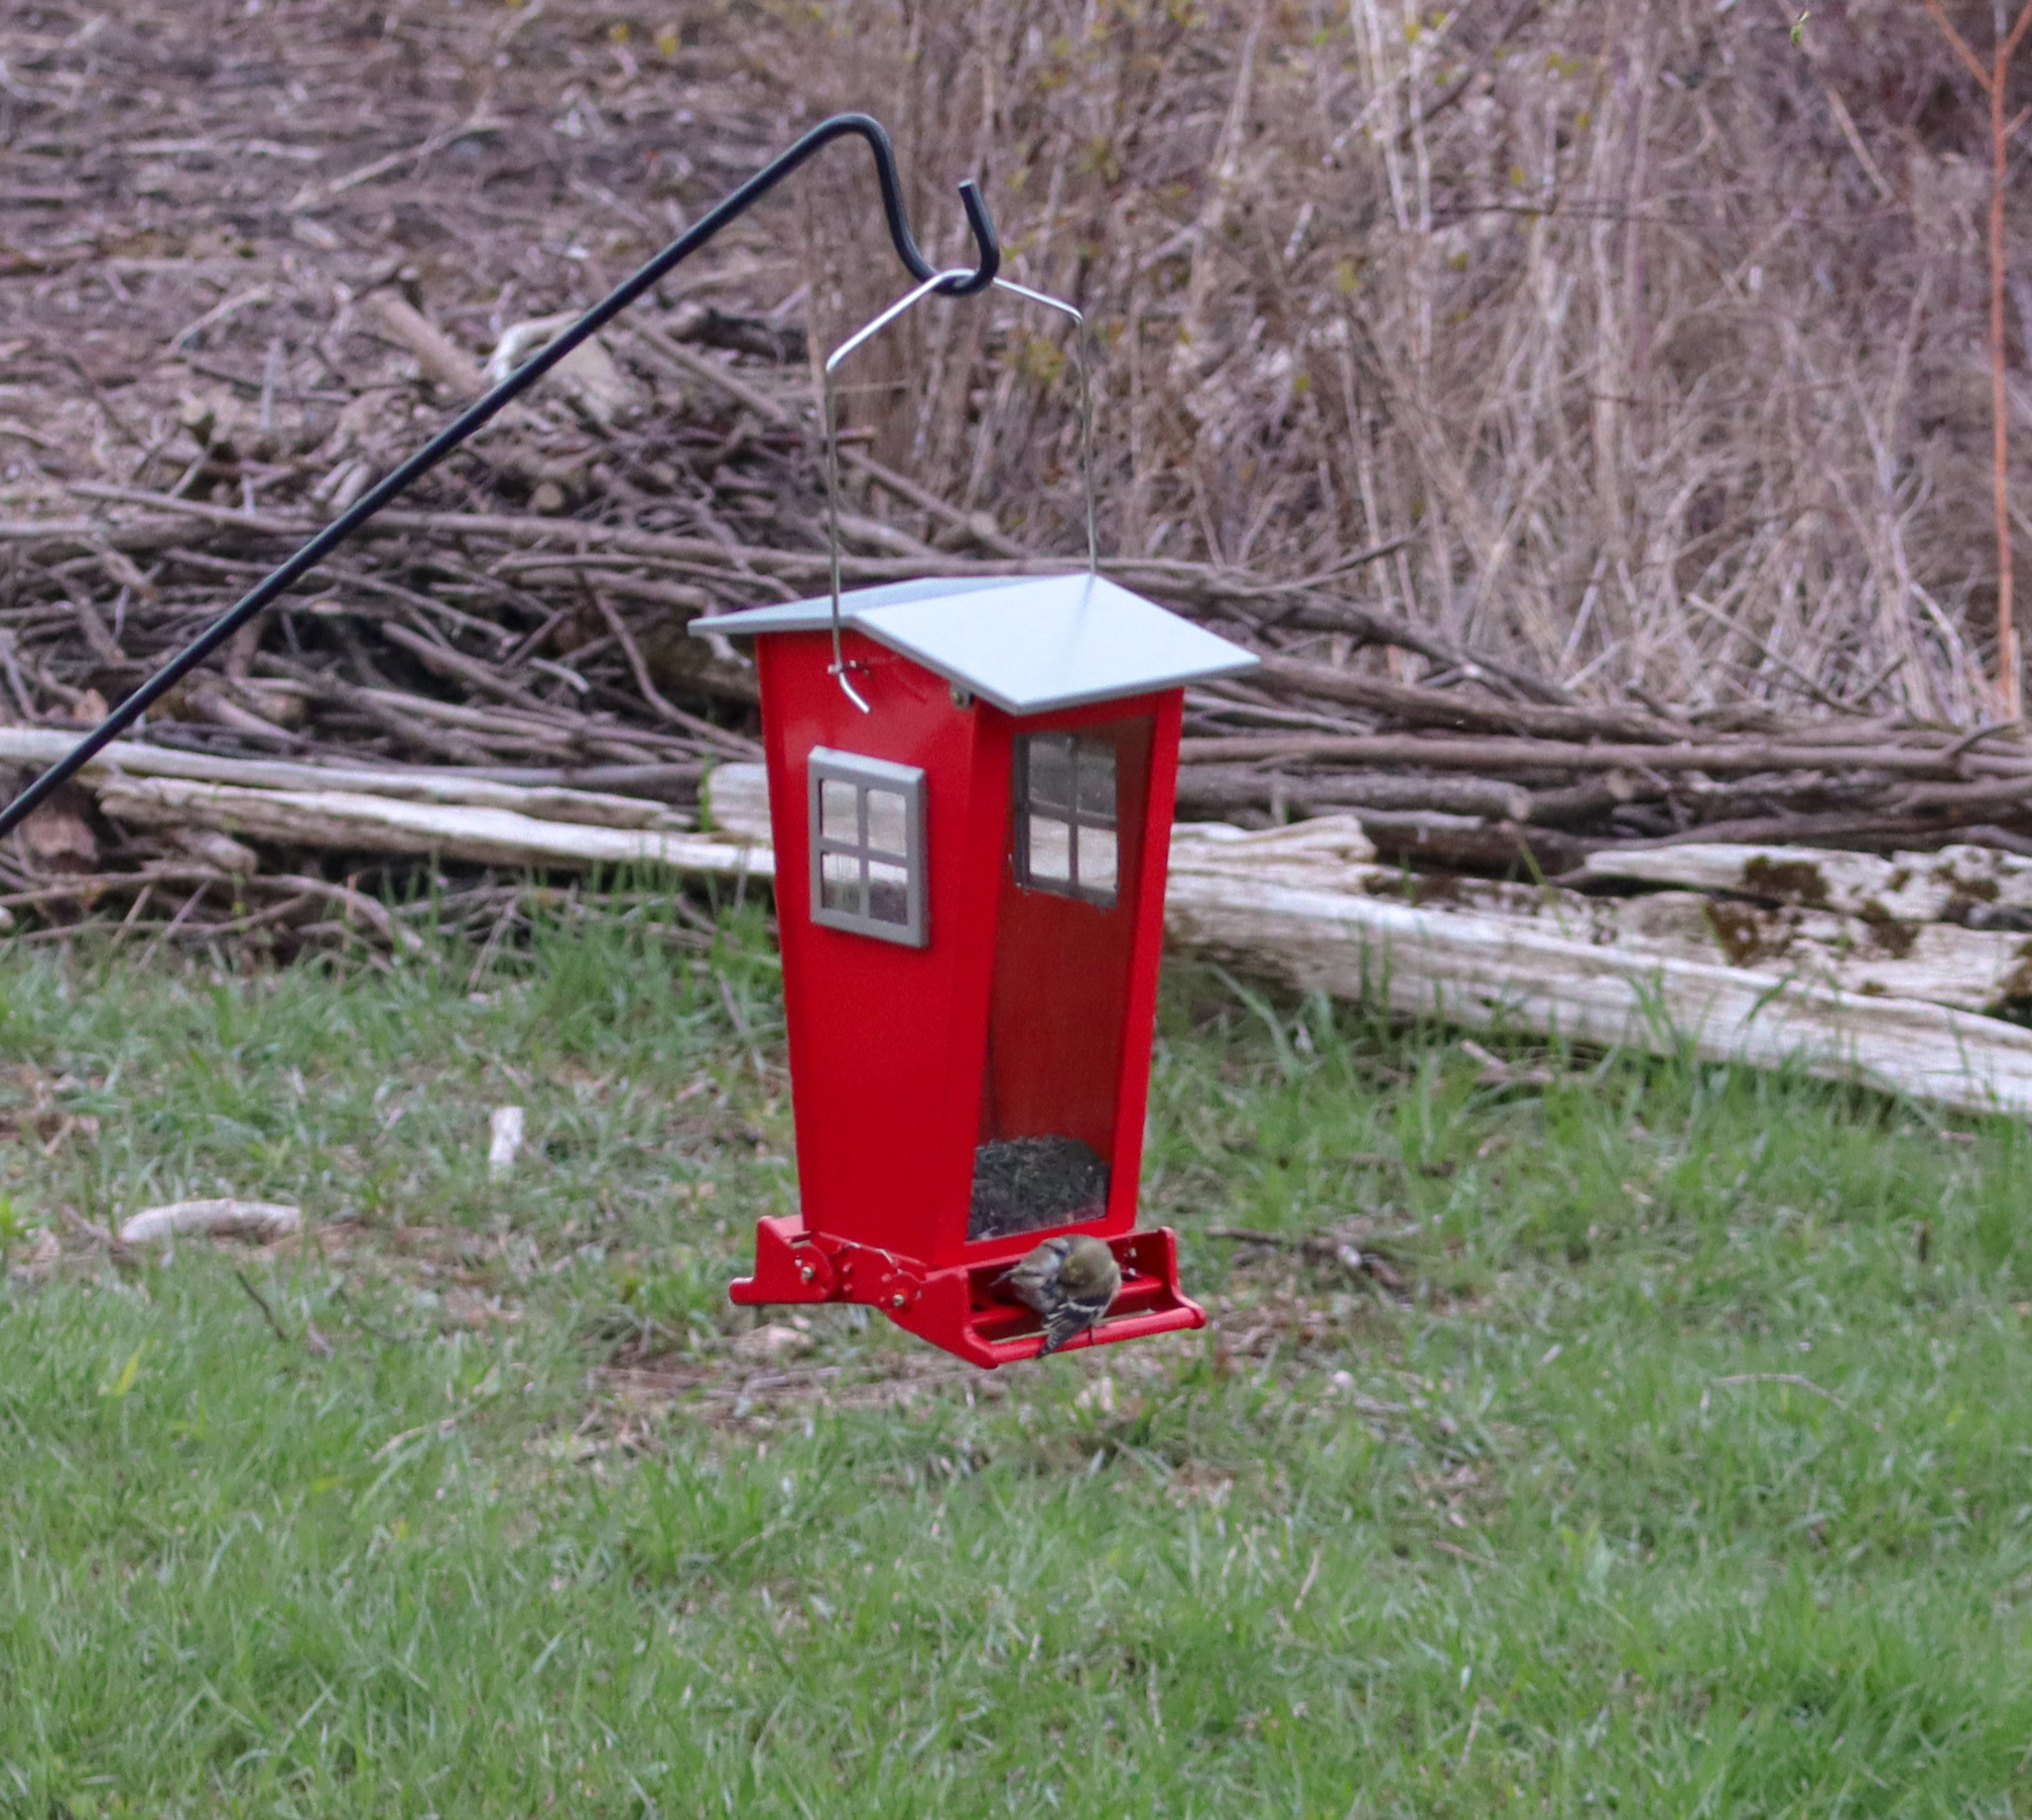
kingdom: Animalia
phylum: Chordata
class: Aves
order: Passeriformes
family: Fringillidae
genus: Spinus
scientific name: Spinus tristis
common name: American goldfinch
